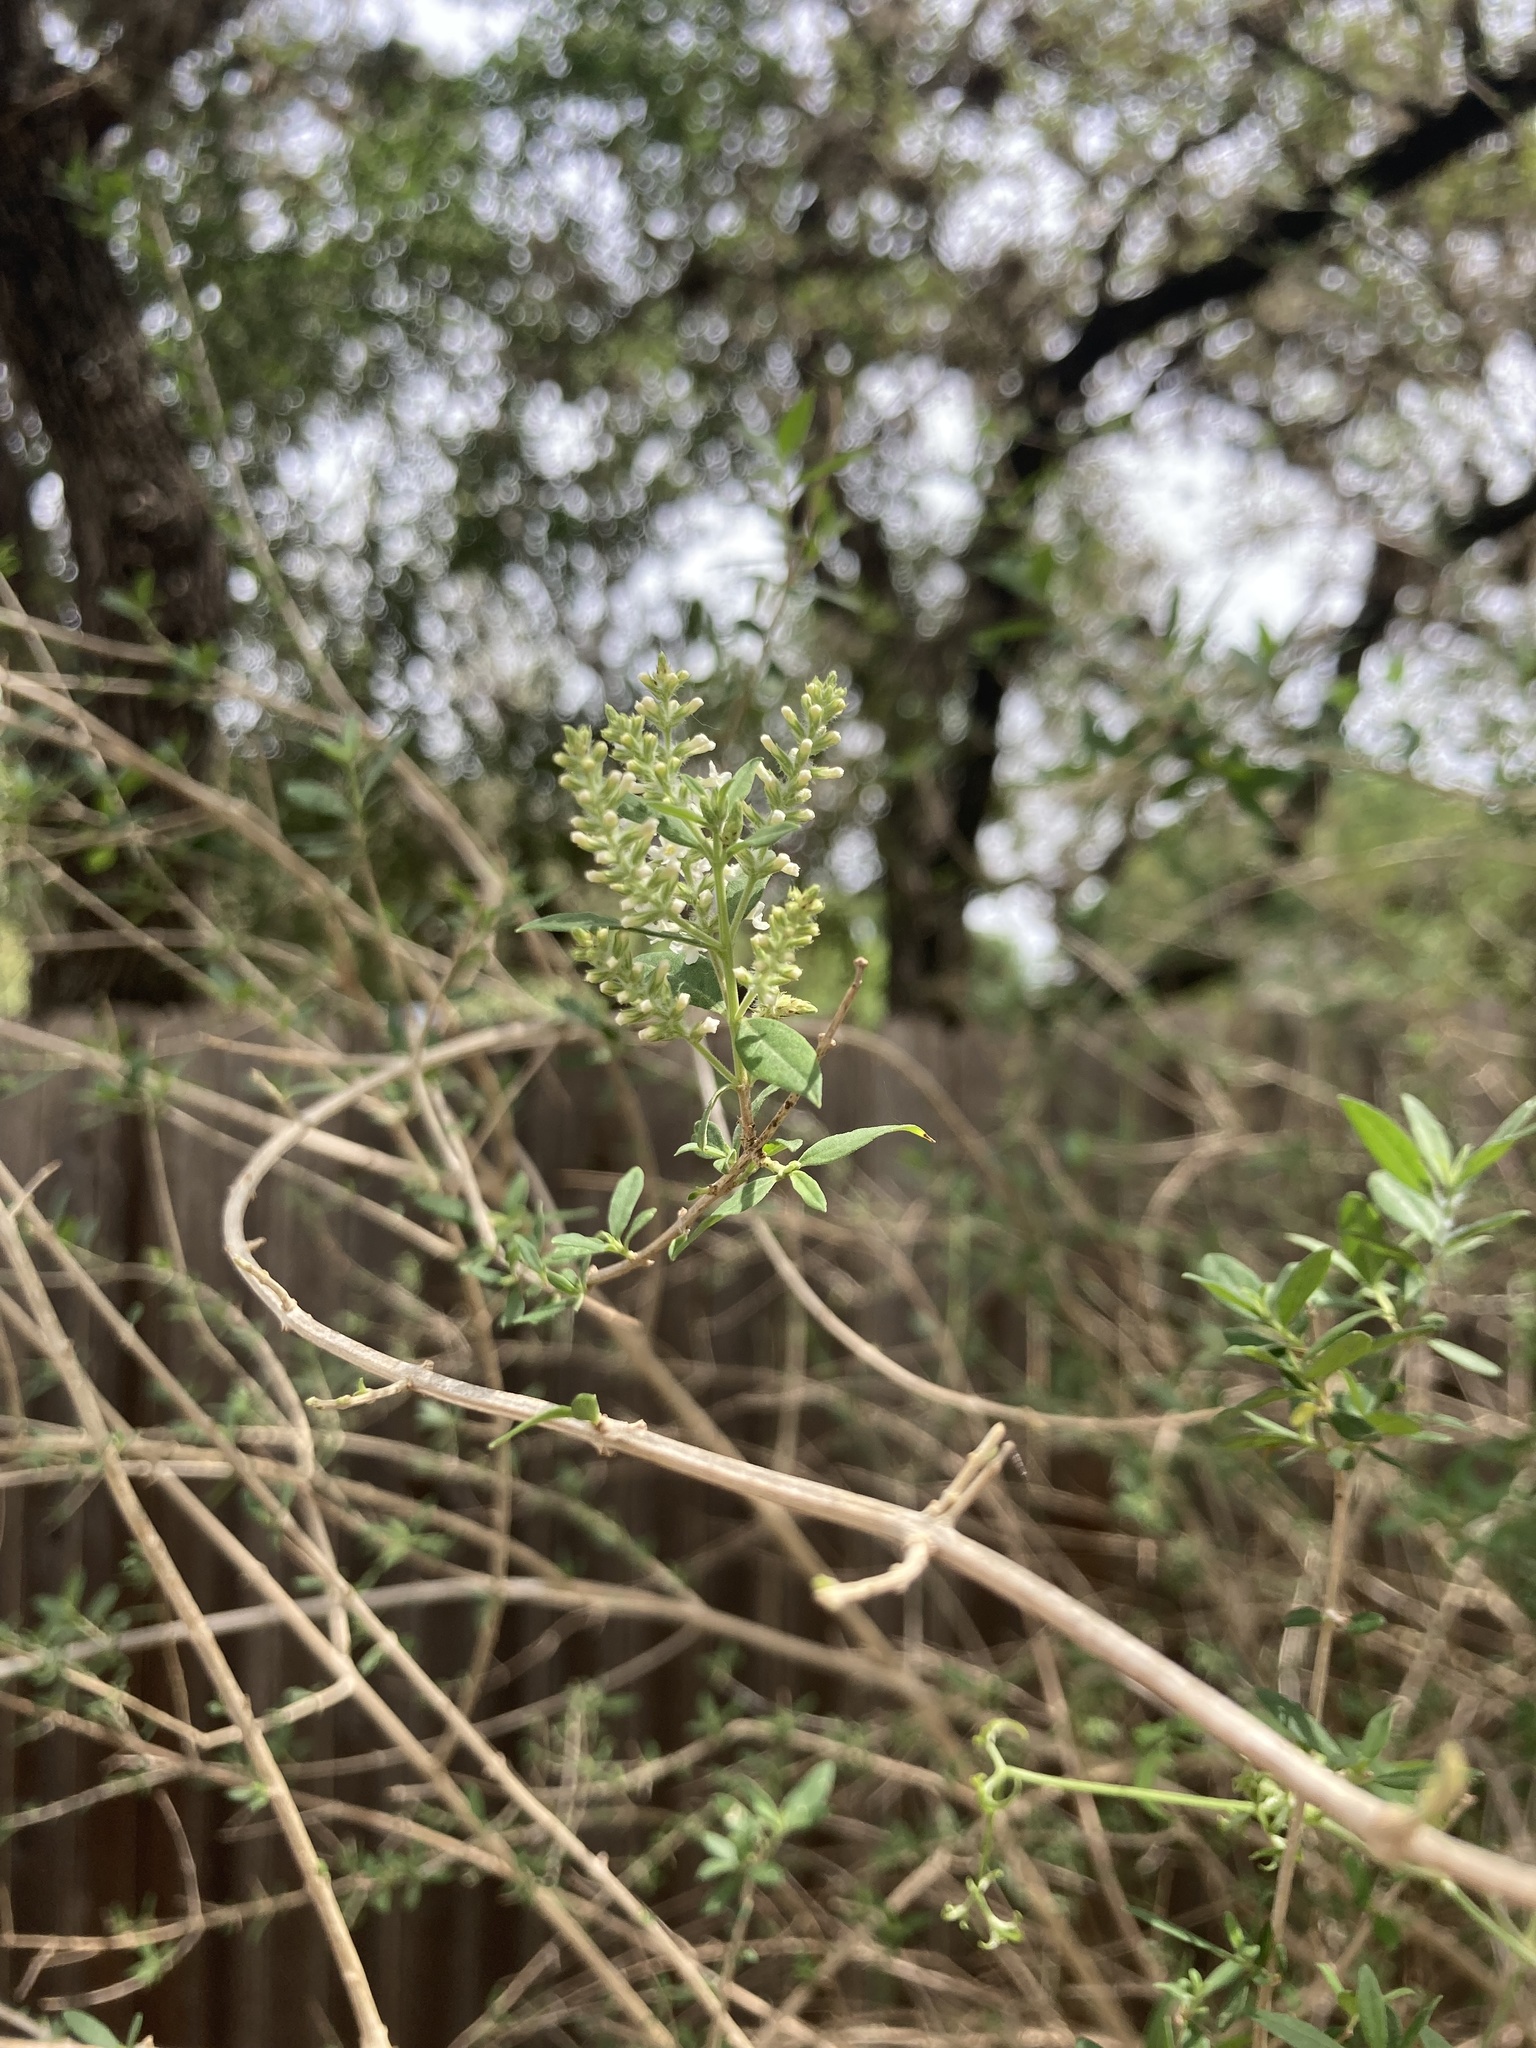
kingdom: Plantae
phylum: Tracheophyta
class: Magnoliopsida
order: Lamiales
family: Verbenaceae
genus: Aloysia
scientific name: Aloysia gratissima
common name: Common bee-brush
